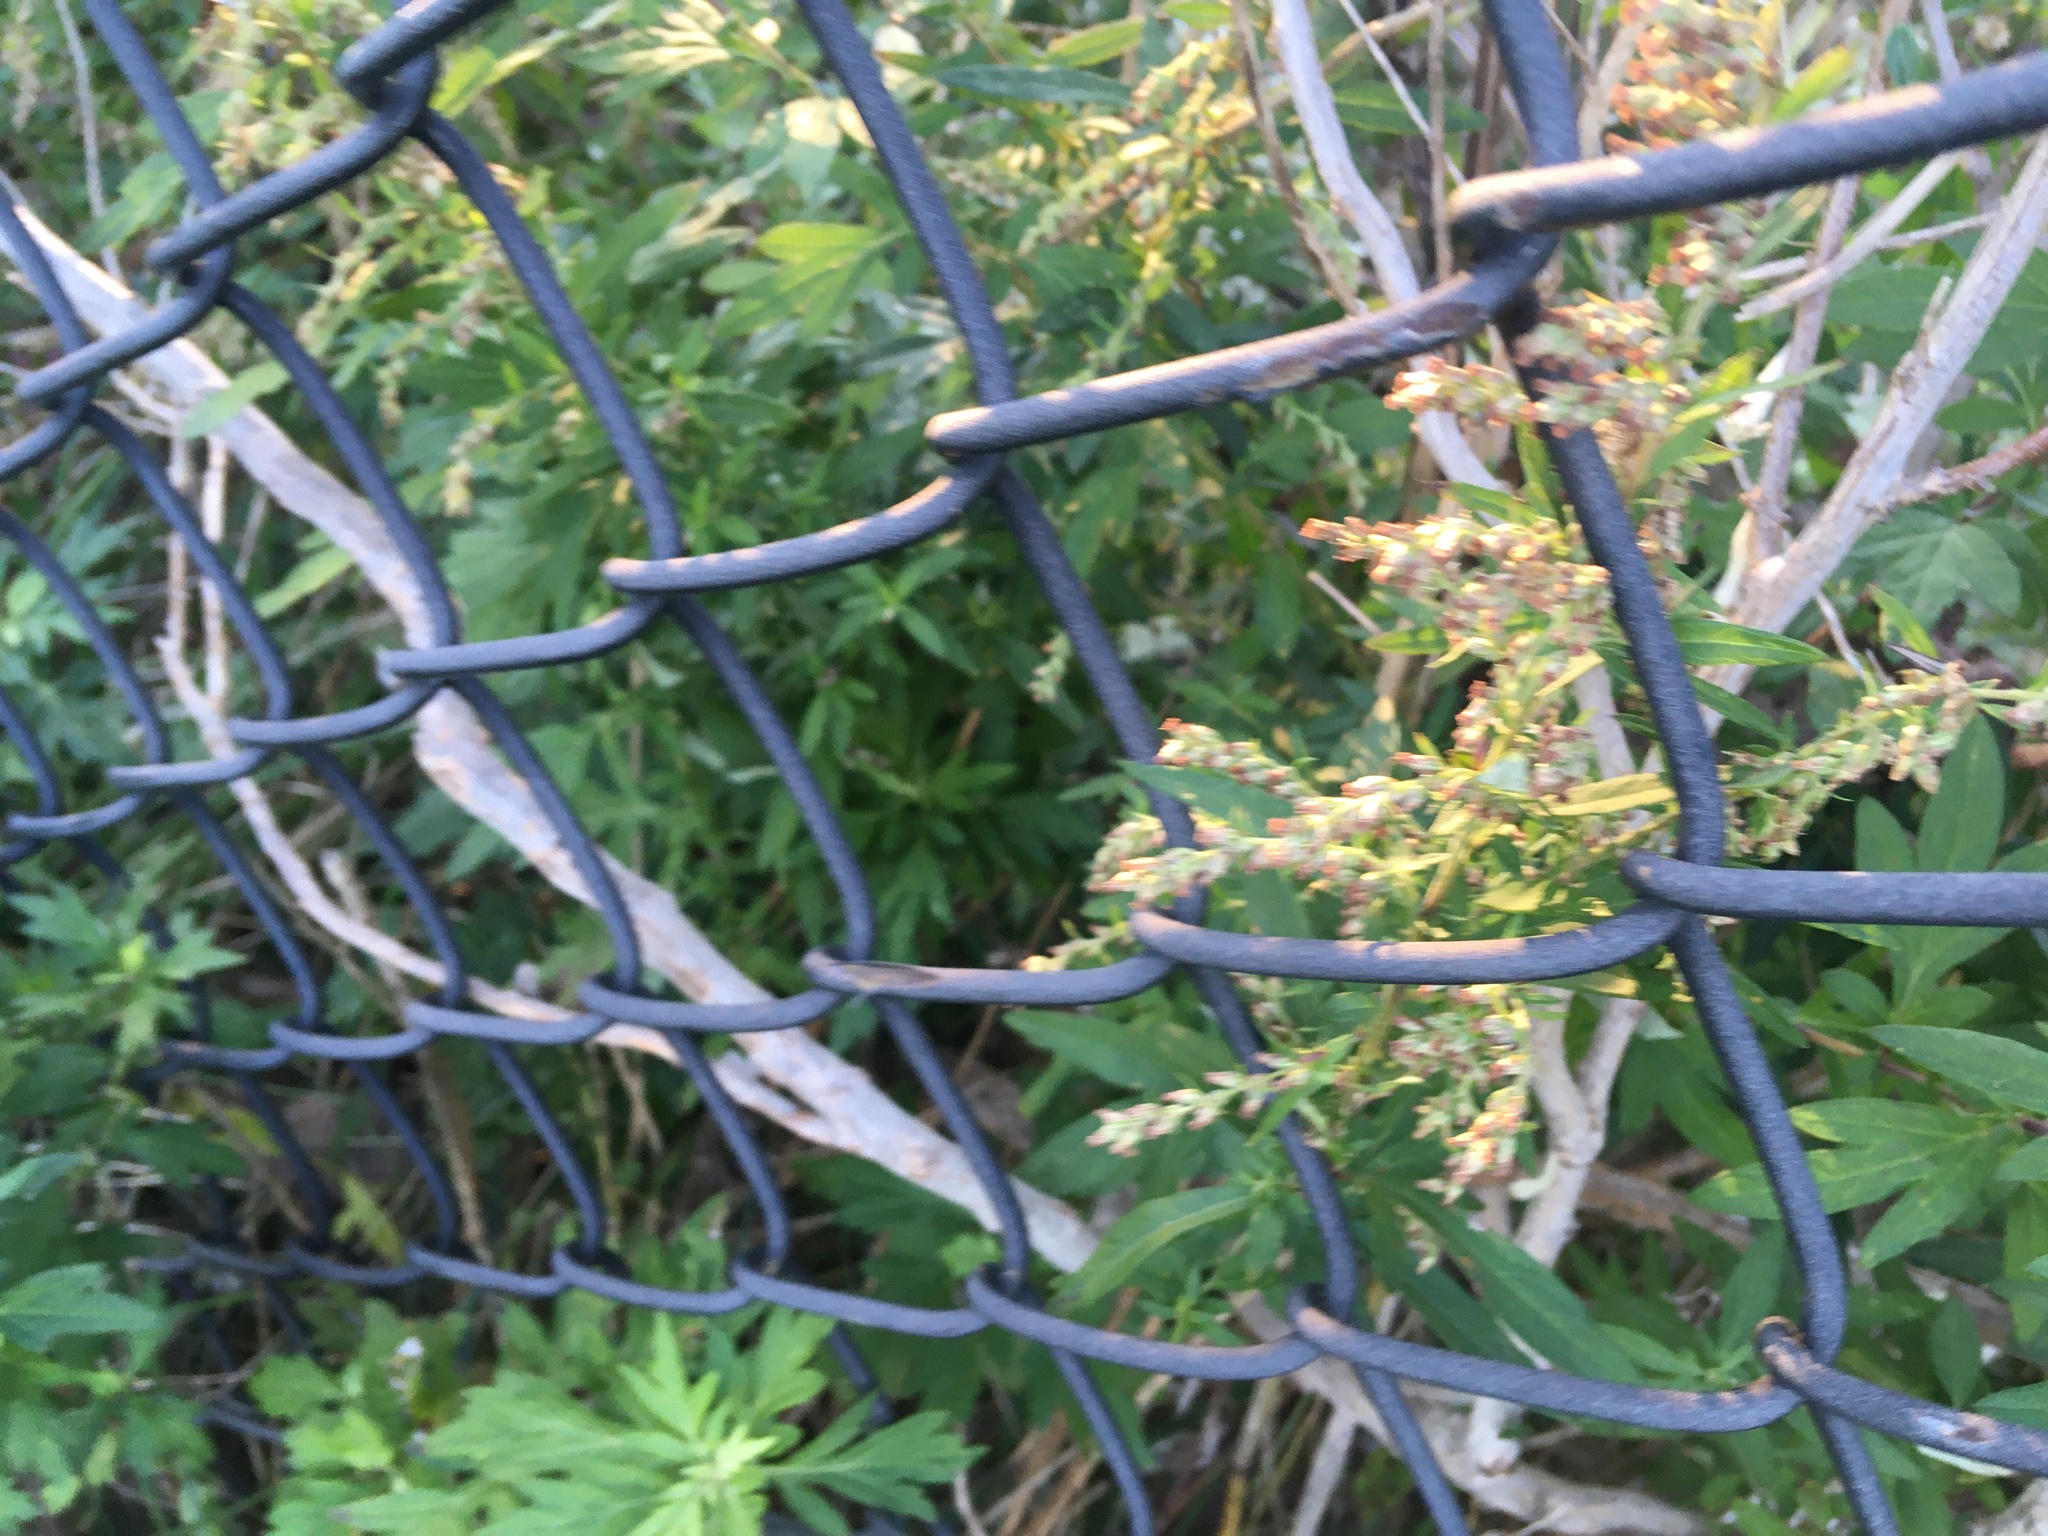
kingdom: Plantae
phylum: Tracheophyta
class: Magnoliopsida
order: Asterales
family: Asteraceae
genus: Artemisia
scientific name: Artemisia vulgaris
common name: Mugwort
